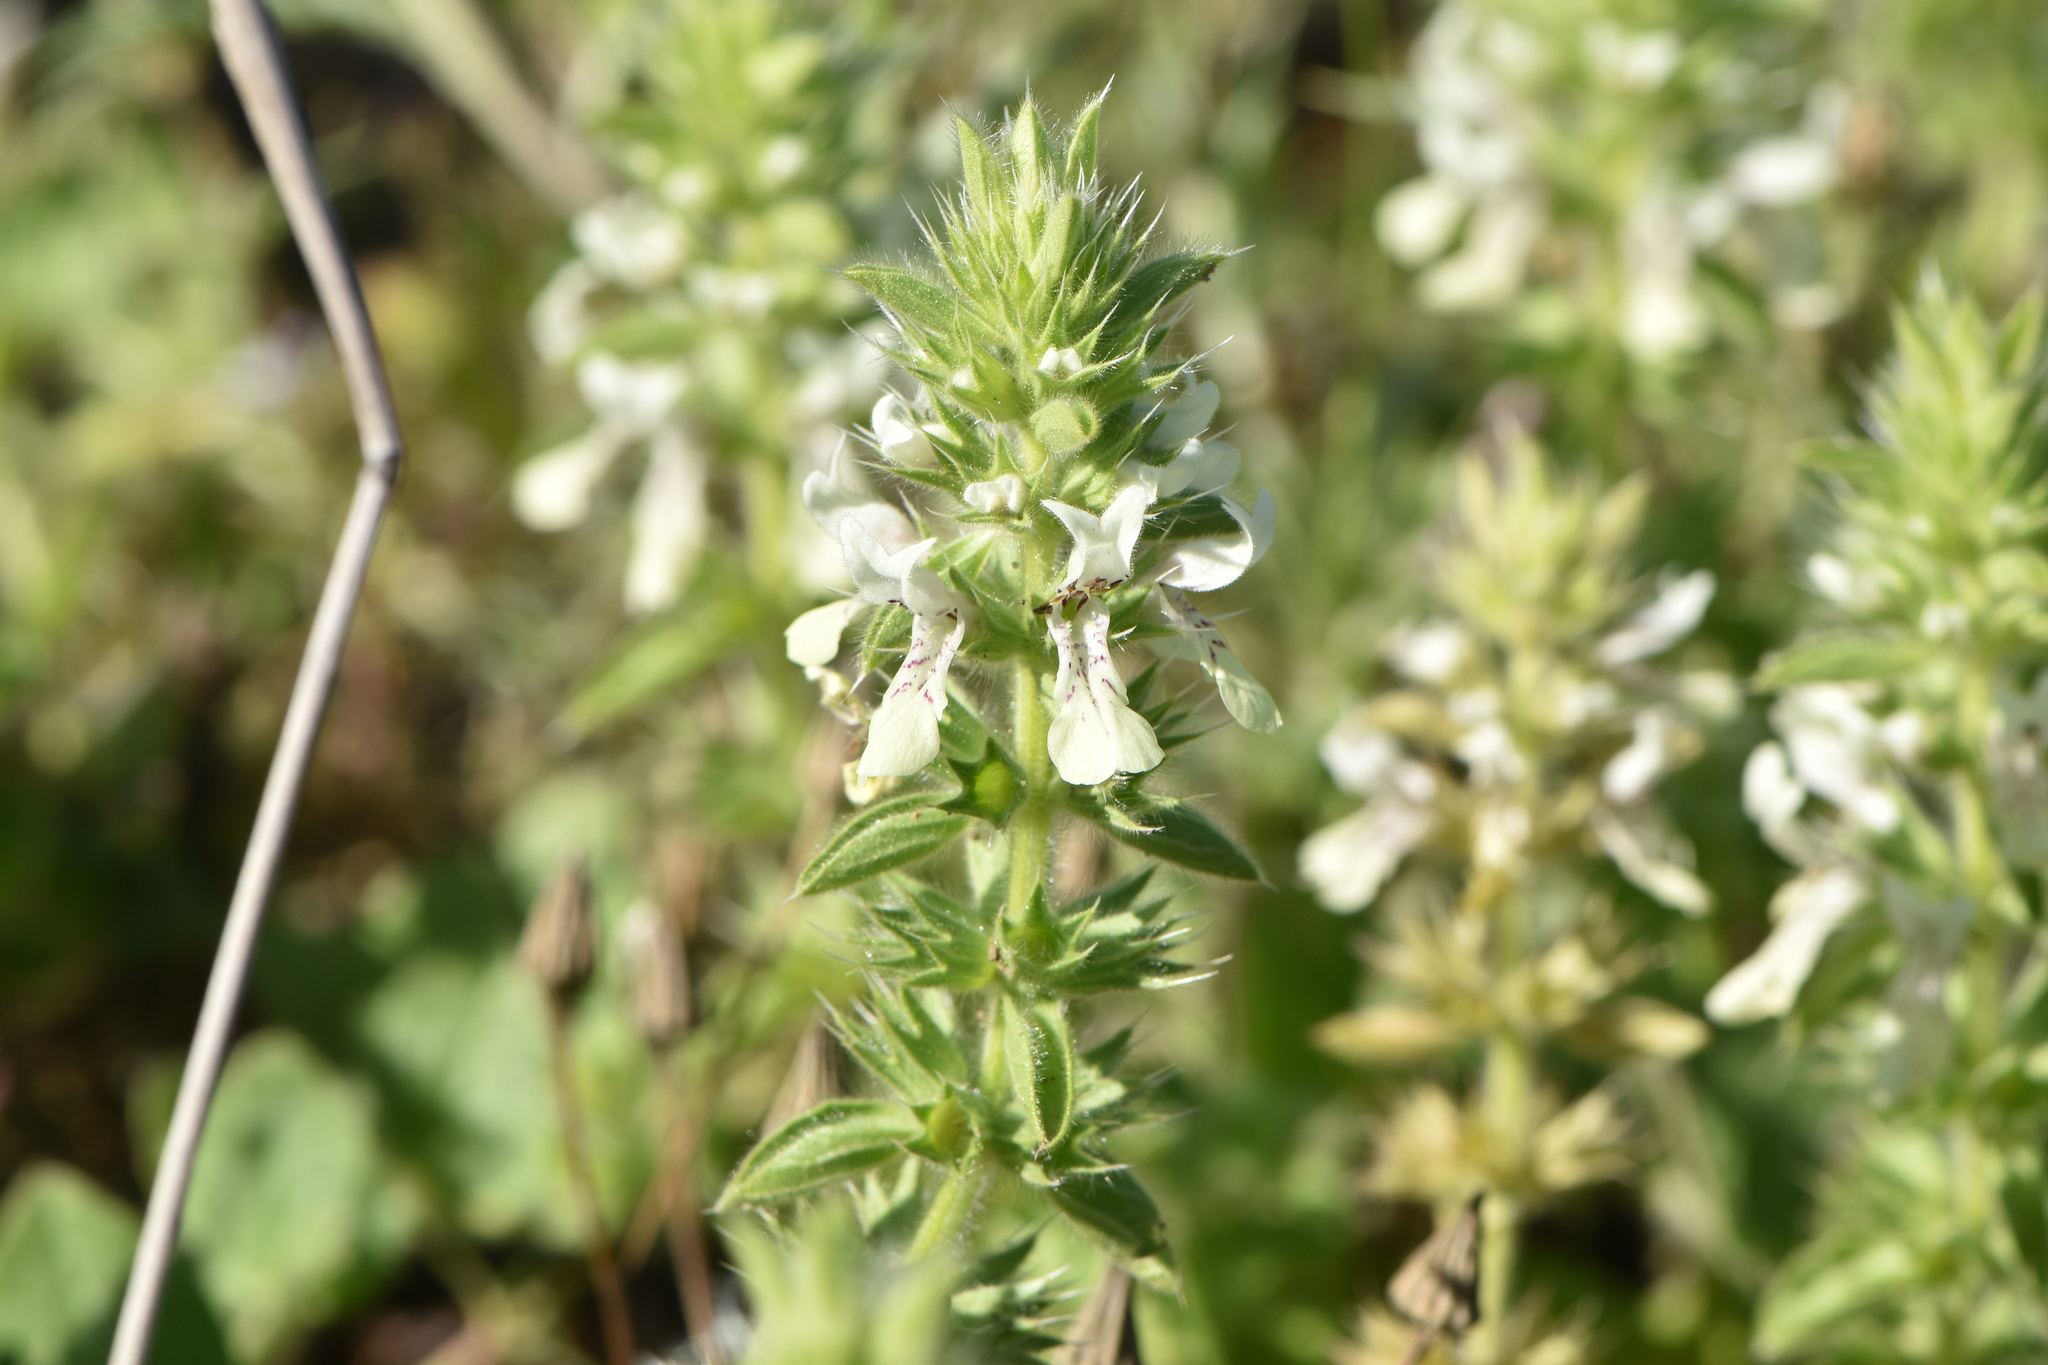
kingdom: Plantae
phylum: Tracheophyta
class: Magnoliopsida
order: Lamiales
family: Lamiaceae
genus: Stachys
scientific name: Stachys ocymastrum
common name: Italian hedgenettle
